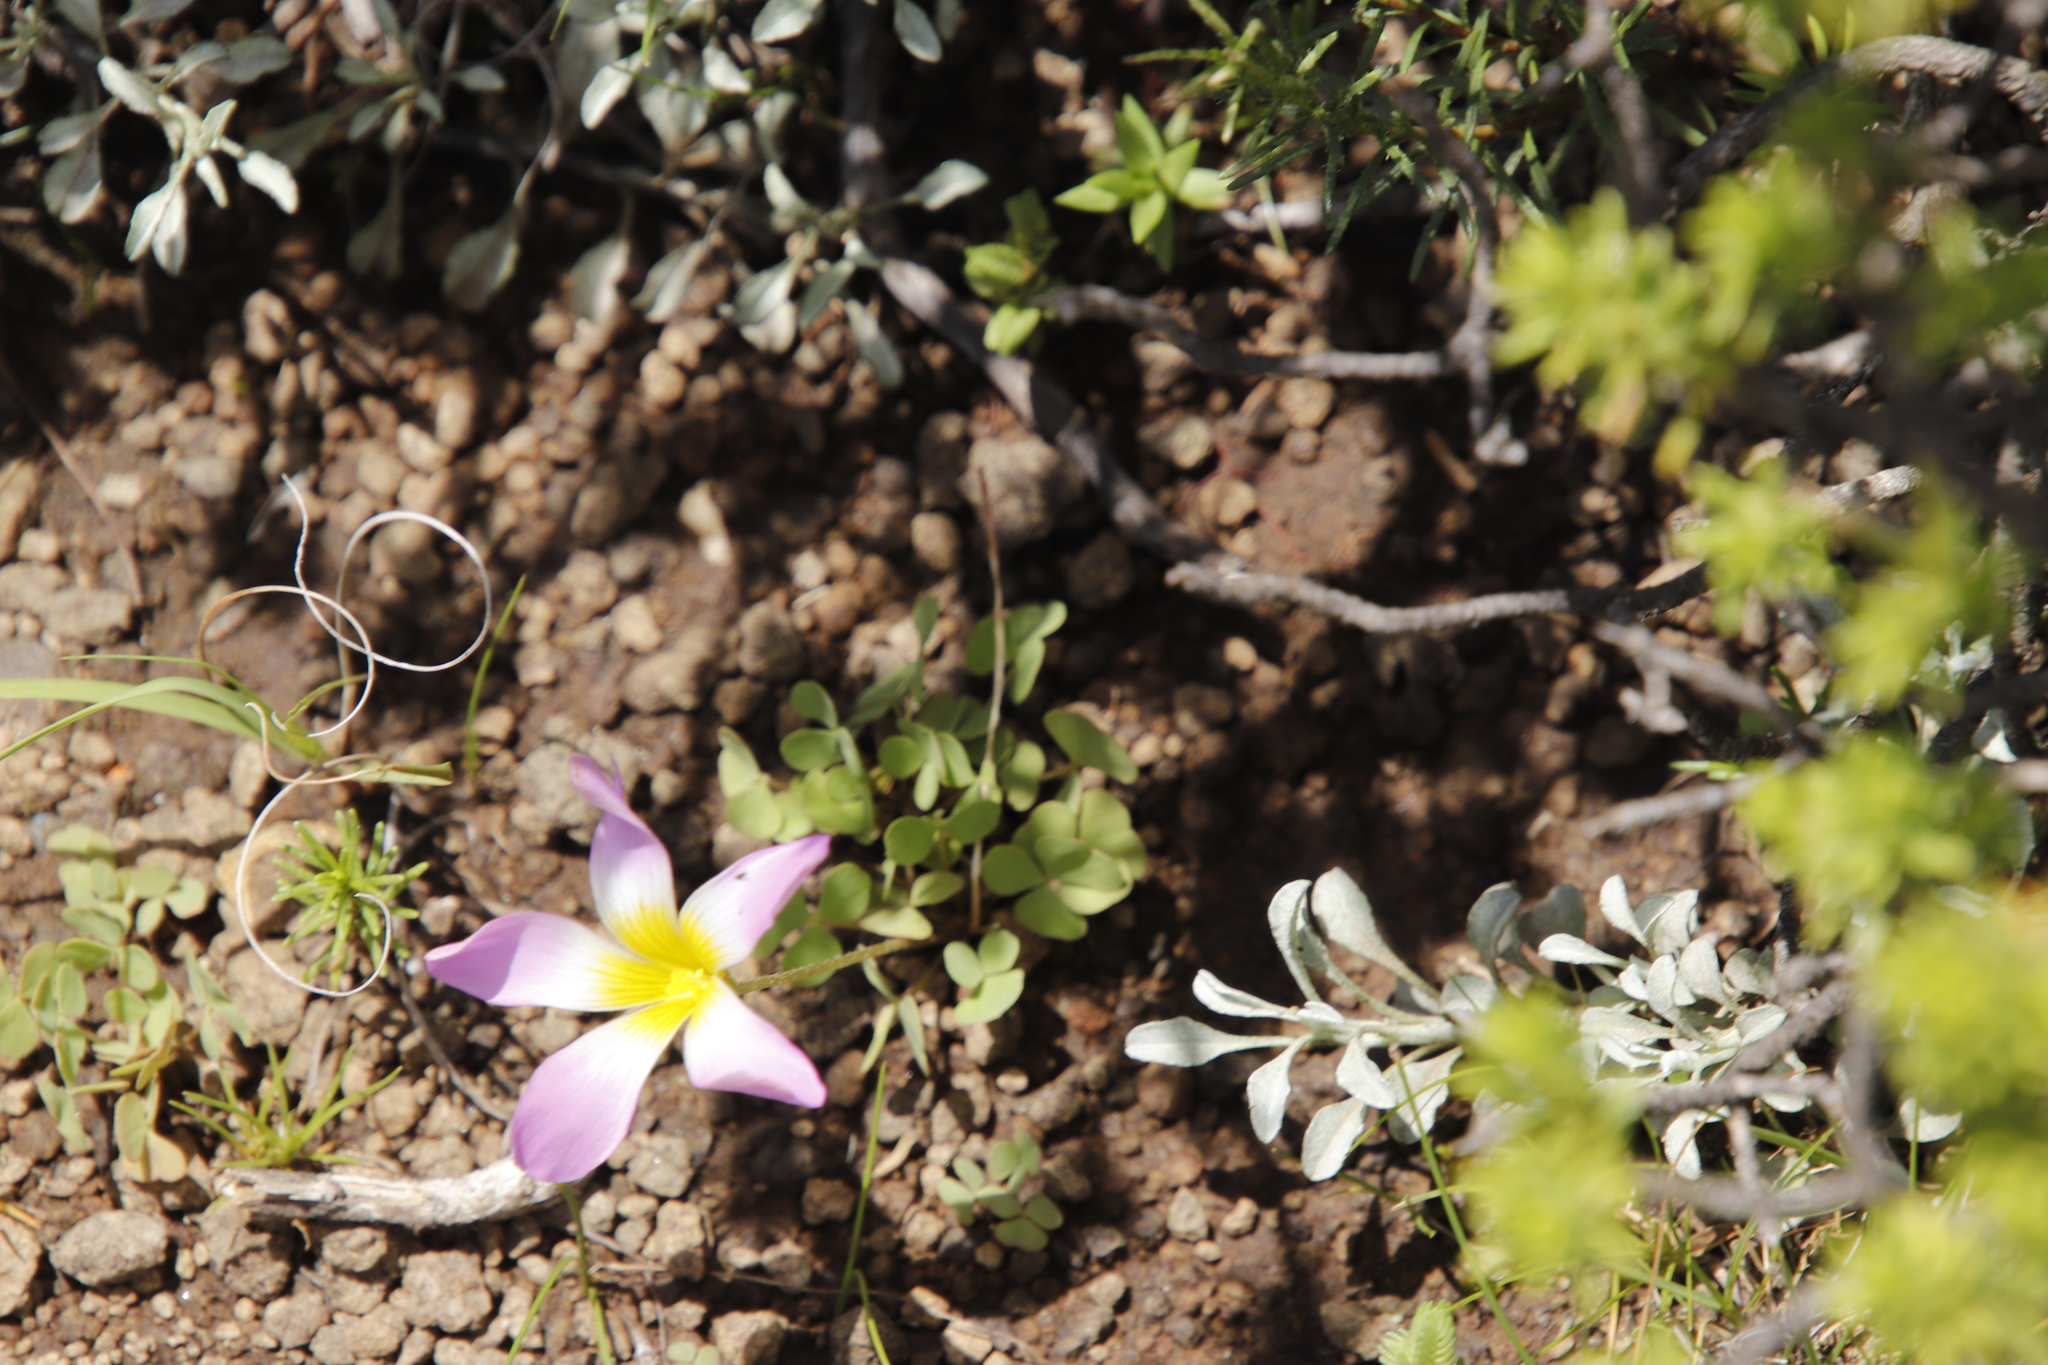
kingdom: Plantae
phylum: Tracheophyta
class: Magnoliopsida
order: Oxalidales
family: Oxalidaceae
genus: Oxalis
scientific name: Oxalis obliquifolia
